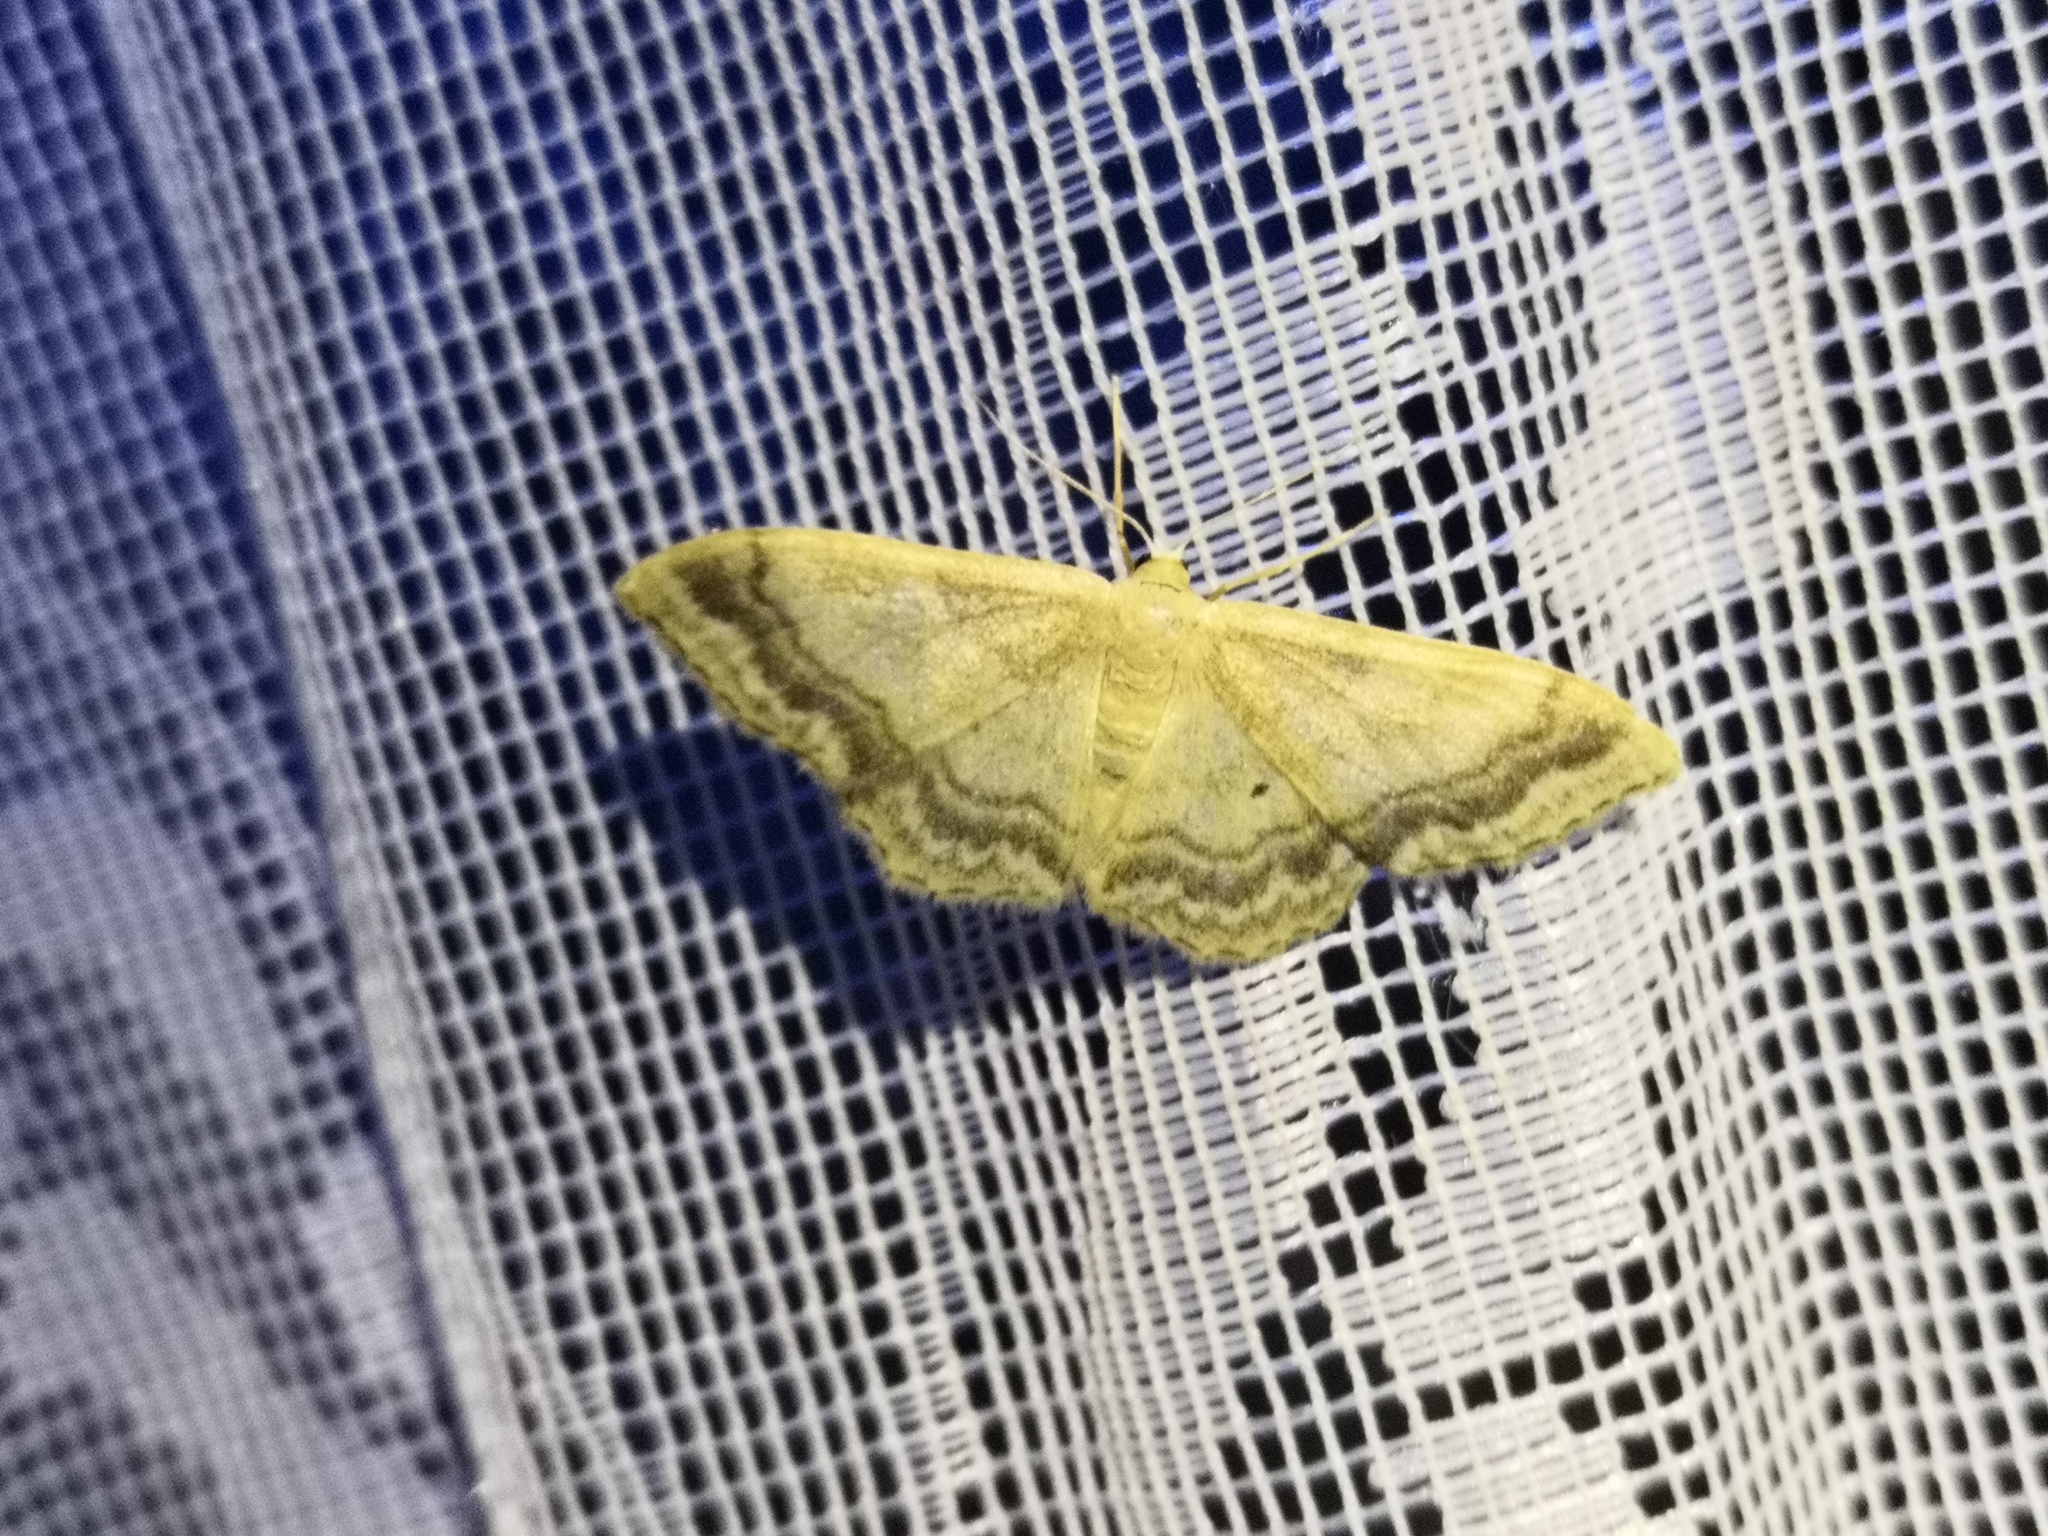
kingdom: Animalia
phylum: Arthropoda
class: Insecta
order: Lepidoptera
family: Geometridae
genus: Idaea
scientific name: Idaea maritimaria
